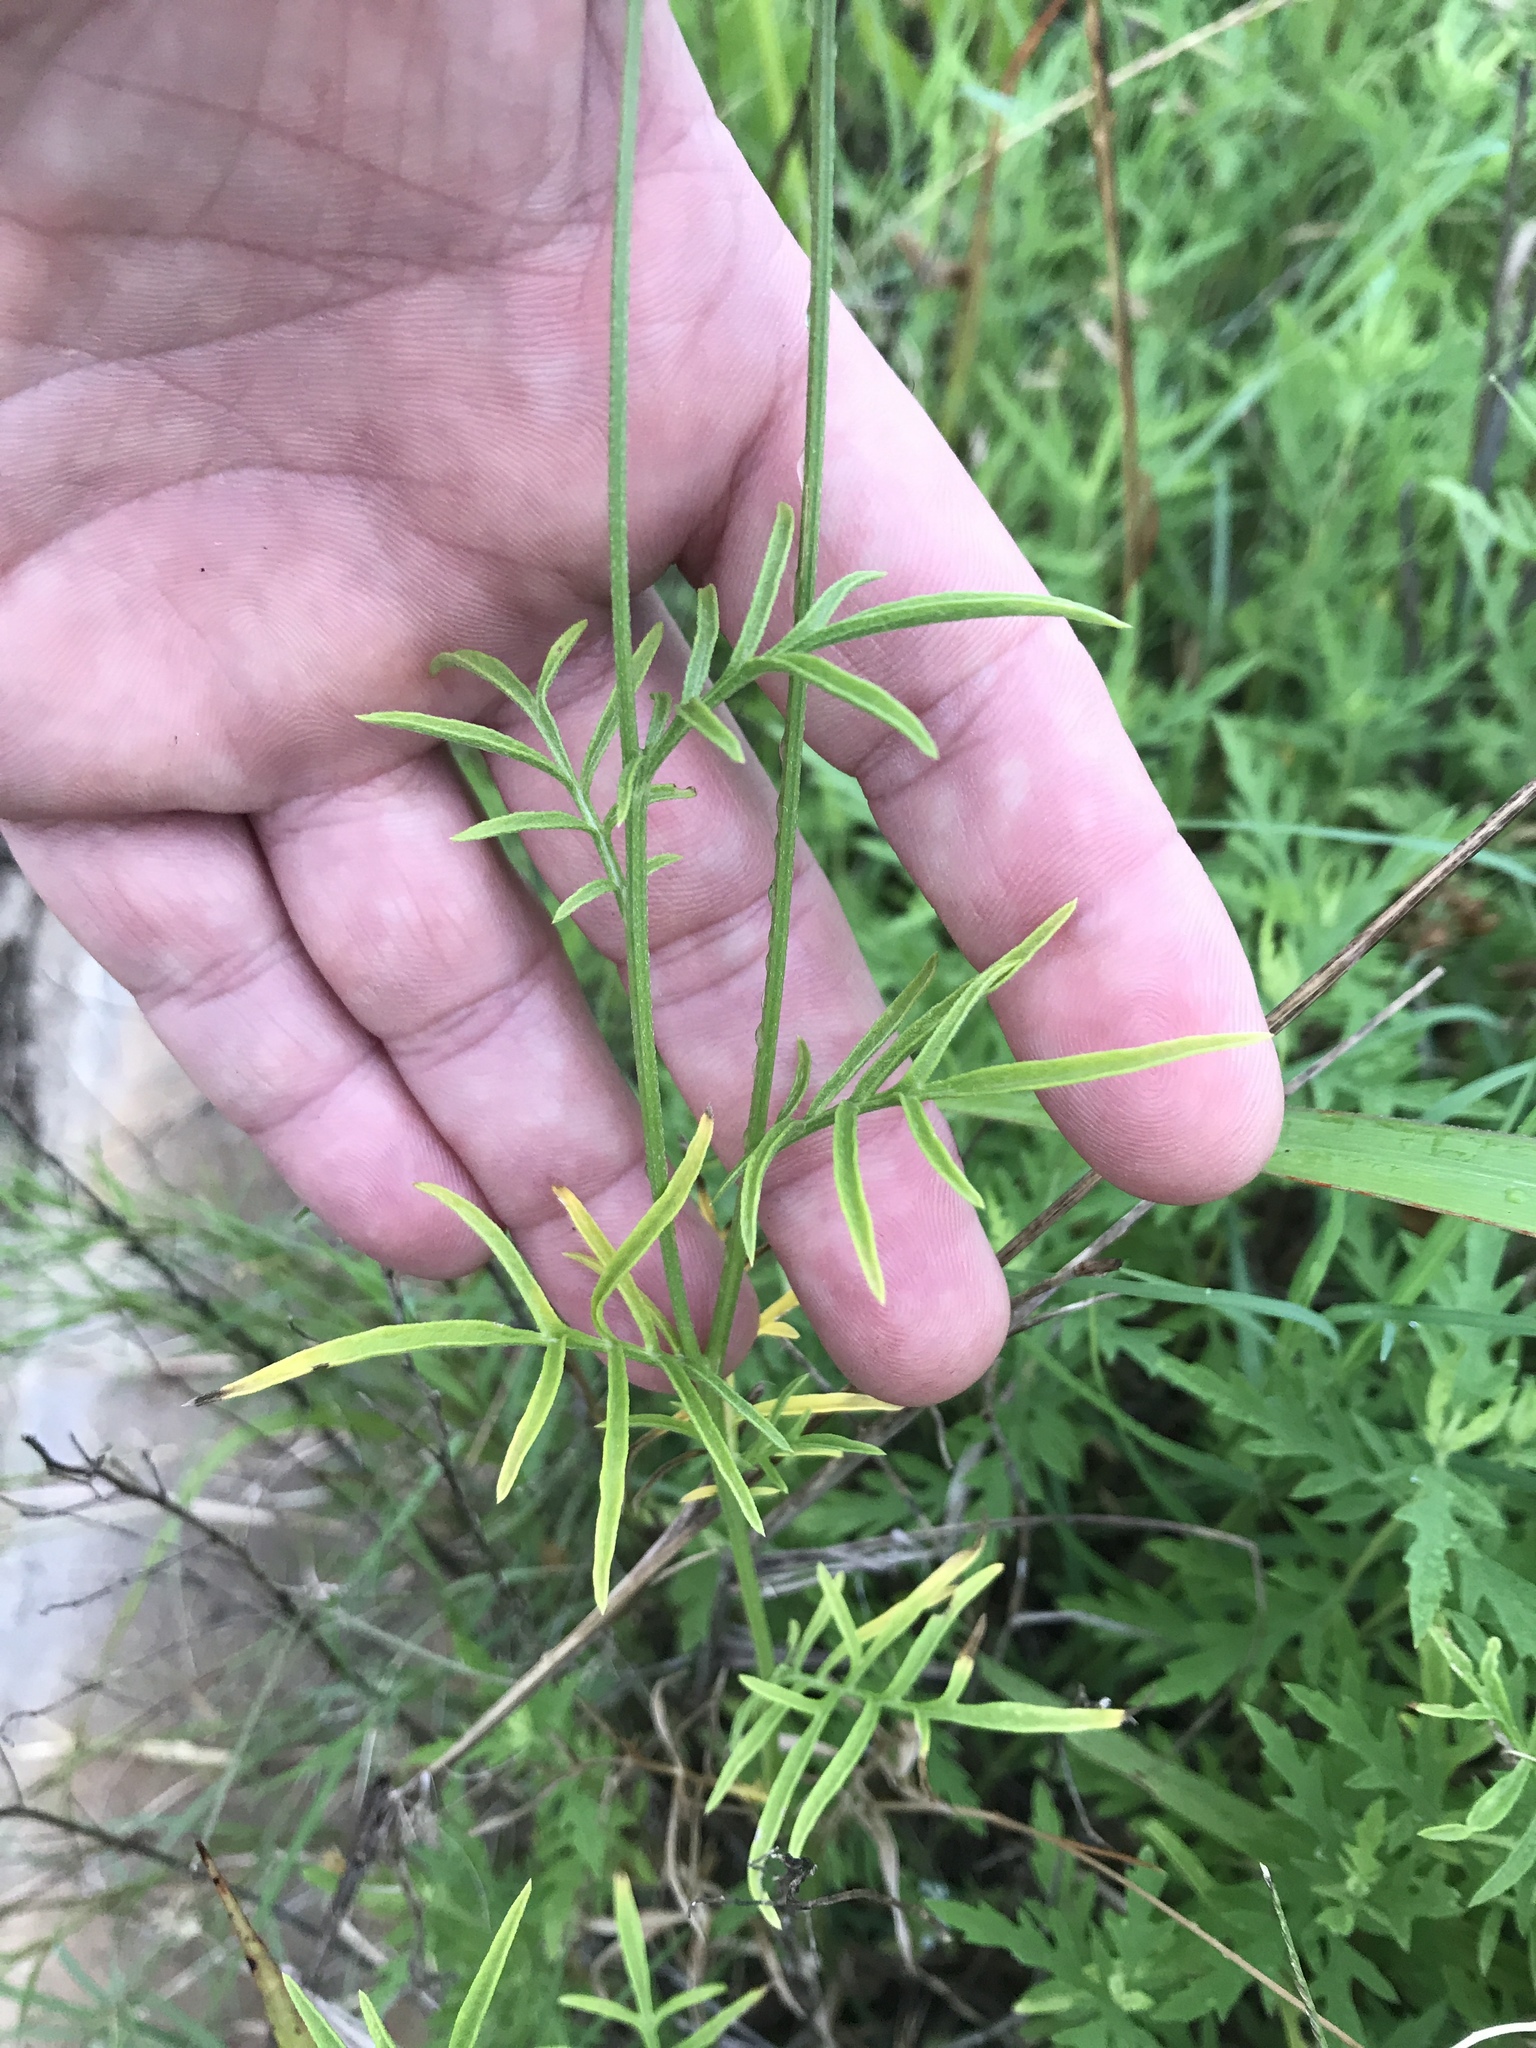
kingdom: Plantae
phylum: Tracheophyta
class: Magnoliopsida
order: Asterales
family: Asteraceae
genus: Ratibida
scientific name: Ratibida columnifera
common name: Prairie coneflower
